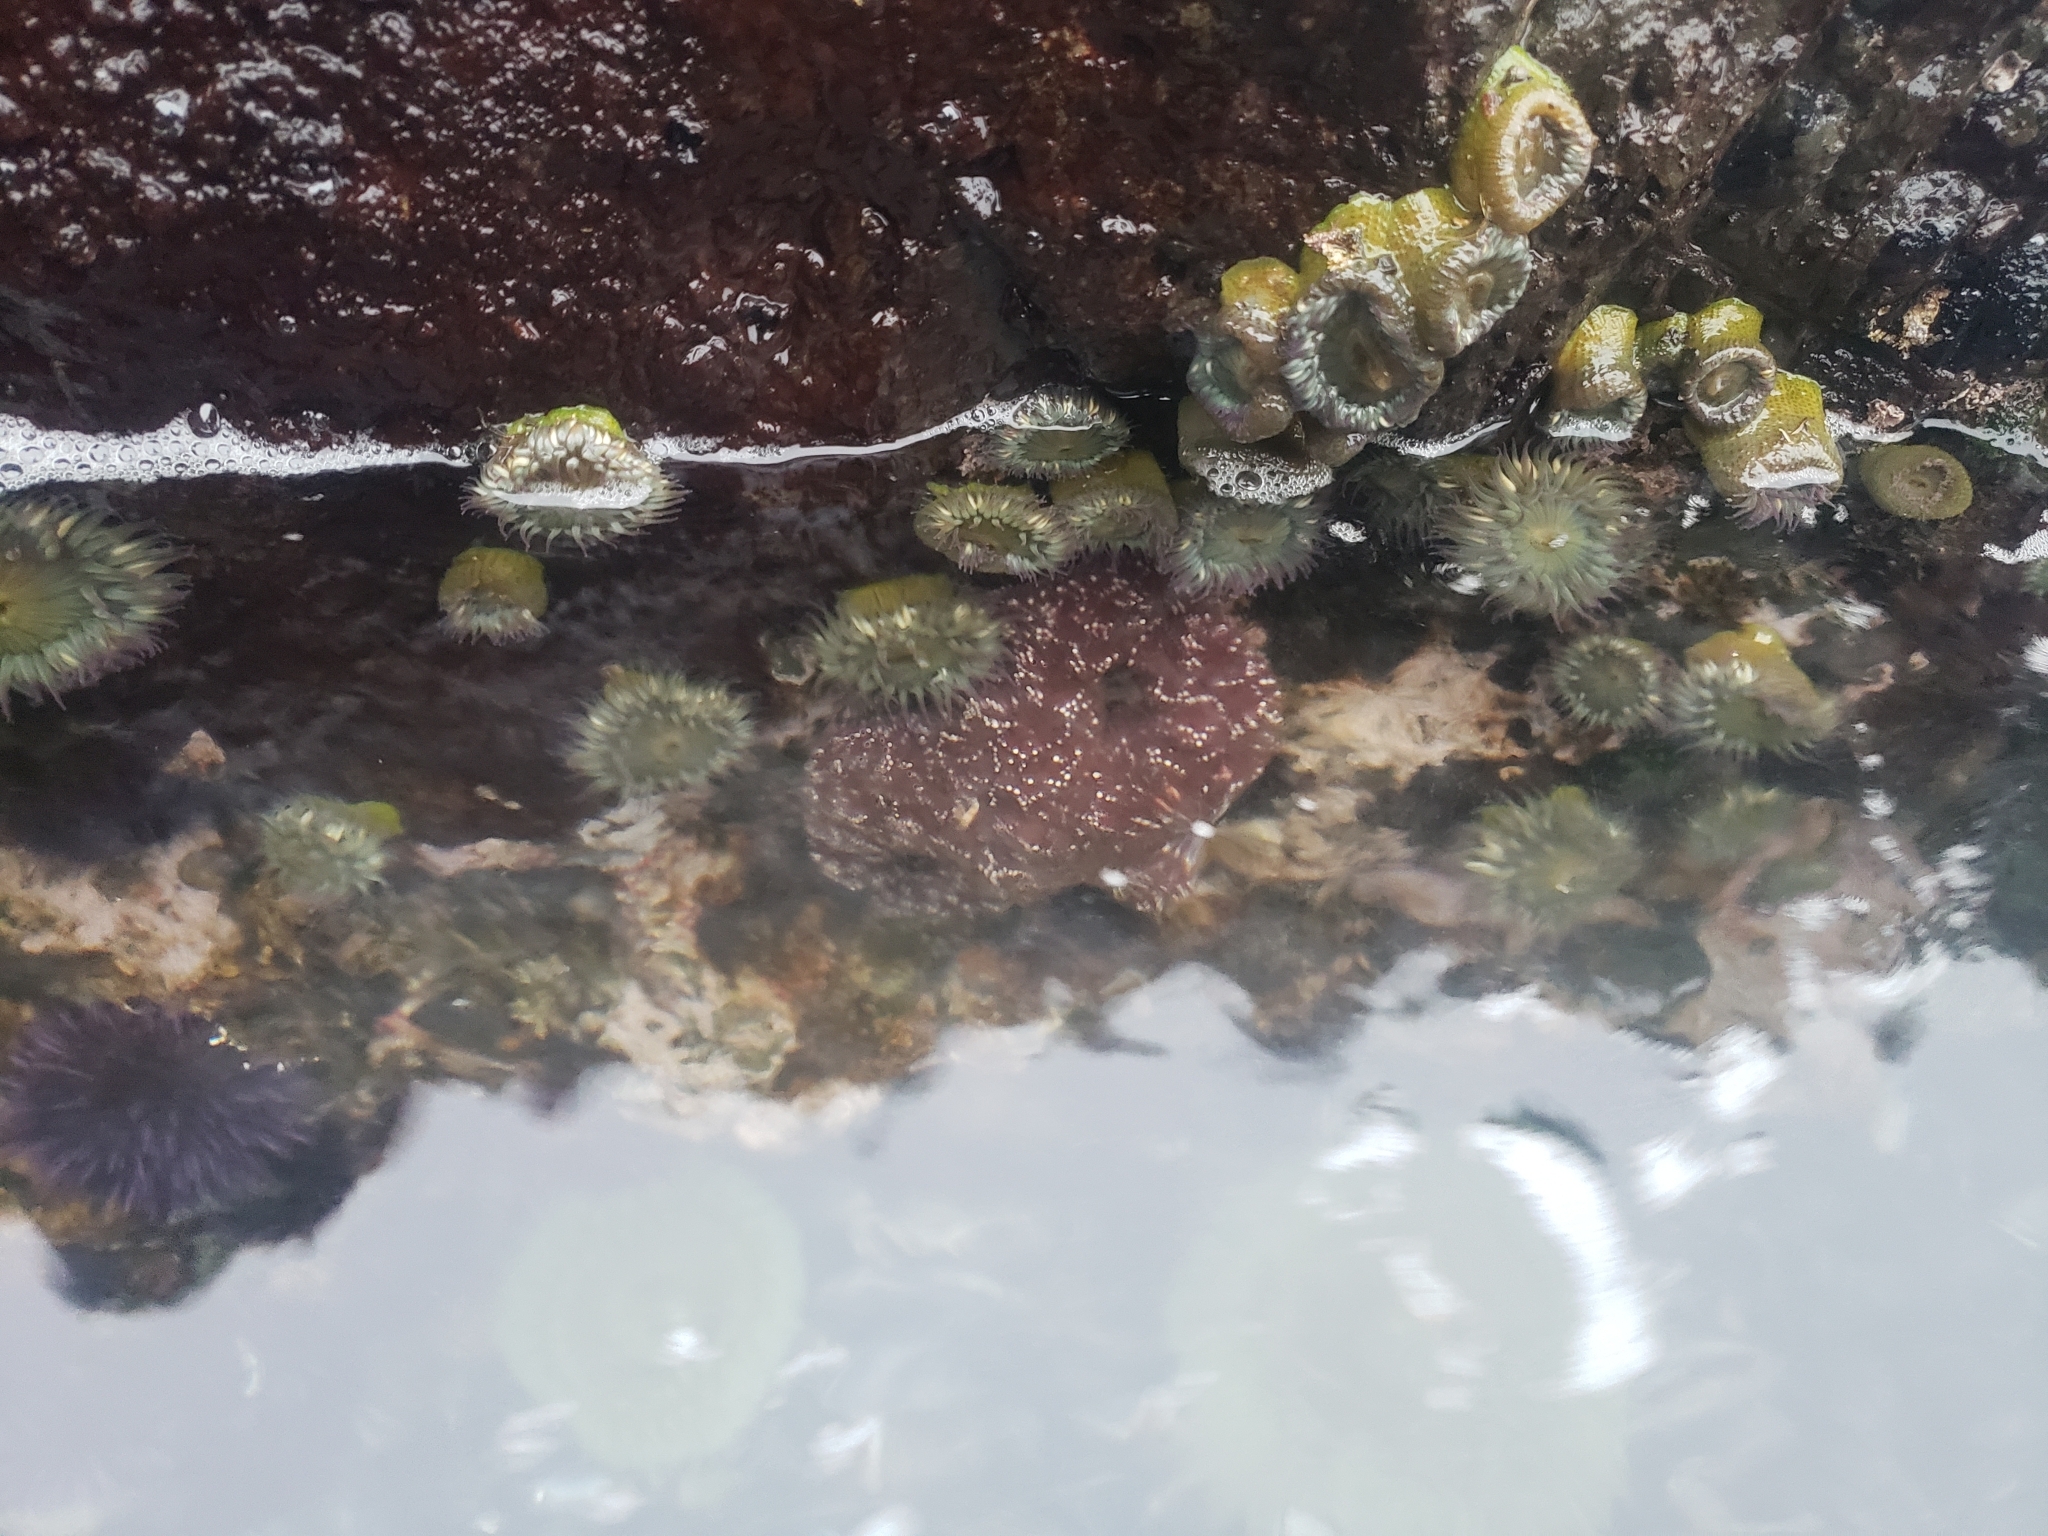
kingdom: Animalia
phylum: Echinodermata
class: Asteroidea
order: Forcipulatida
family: Asteriidae
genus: Pisaster
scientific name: Pisaster ochraceus
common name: Ochre stars
